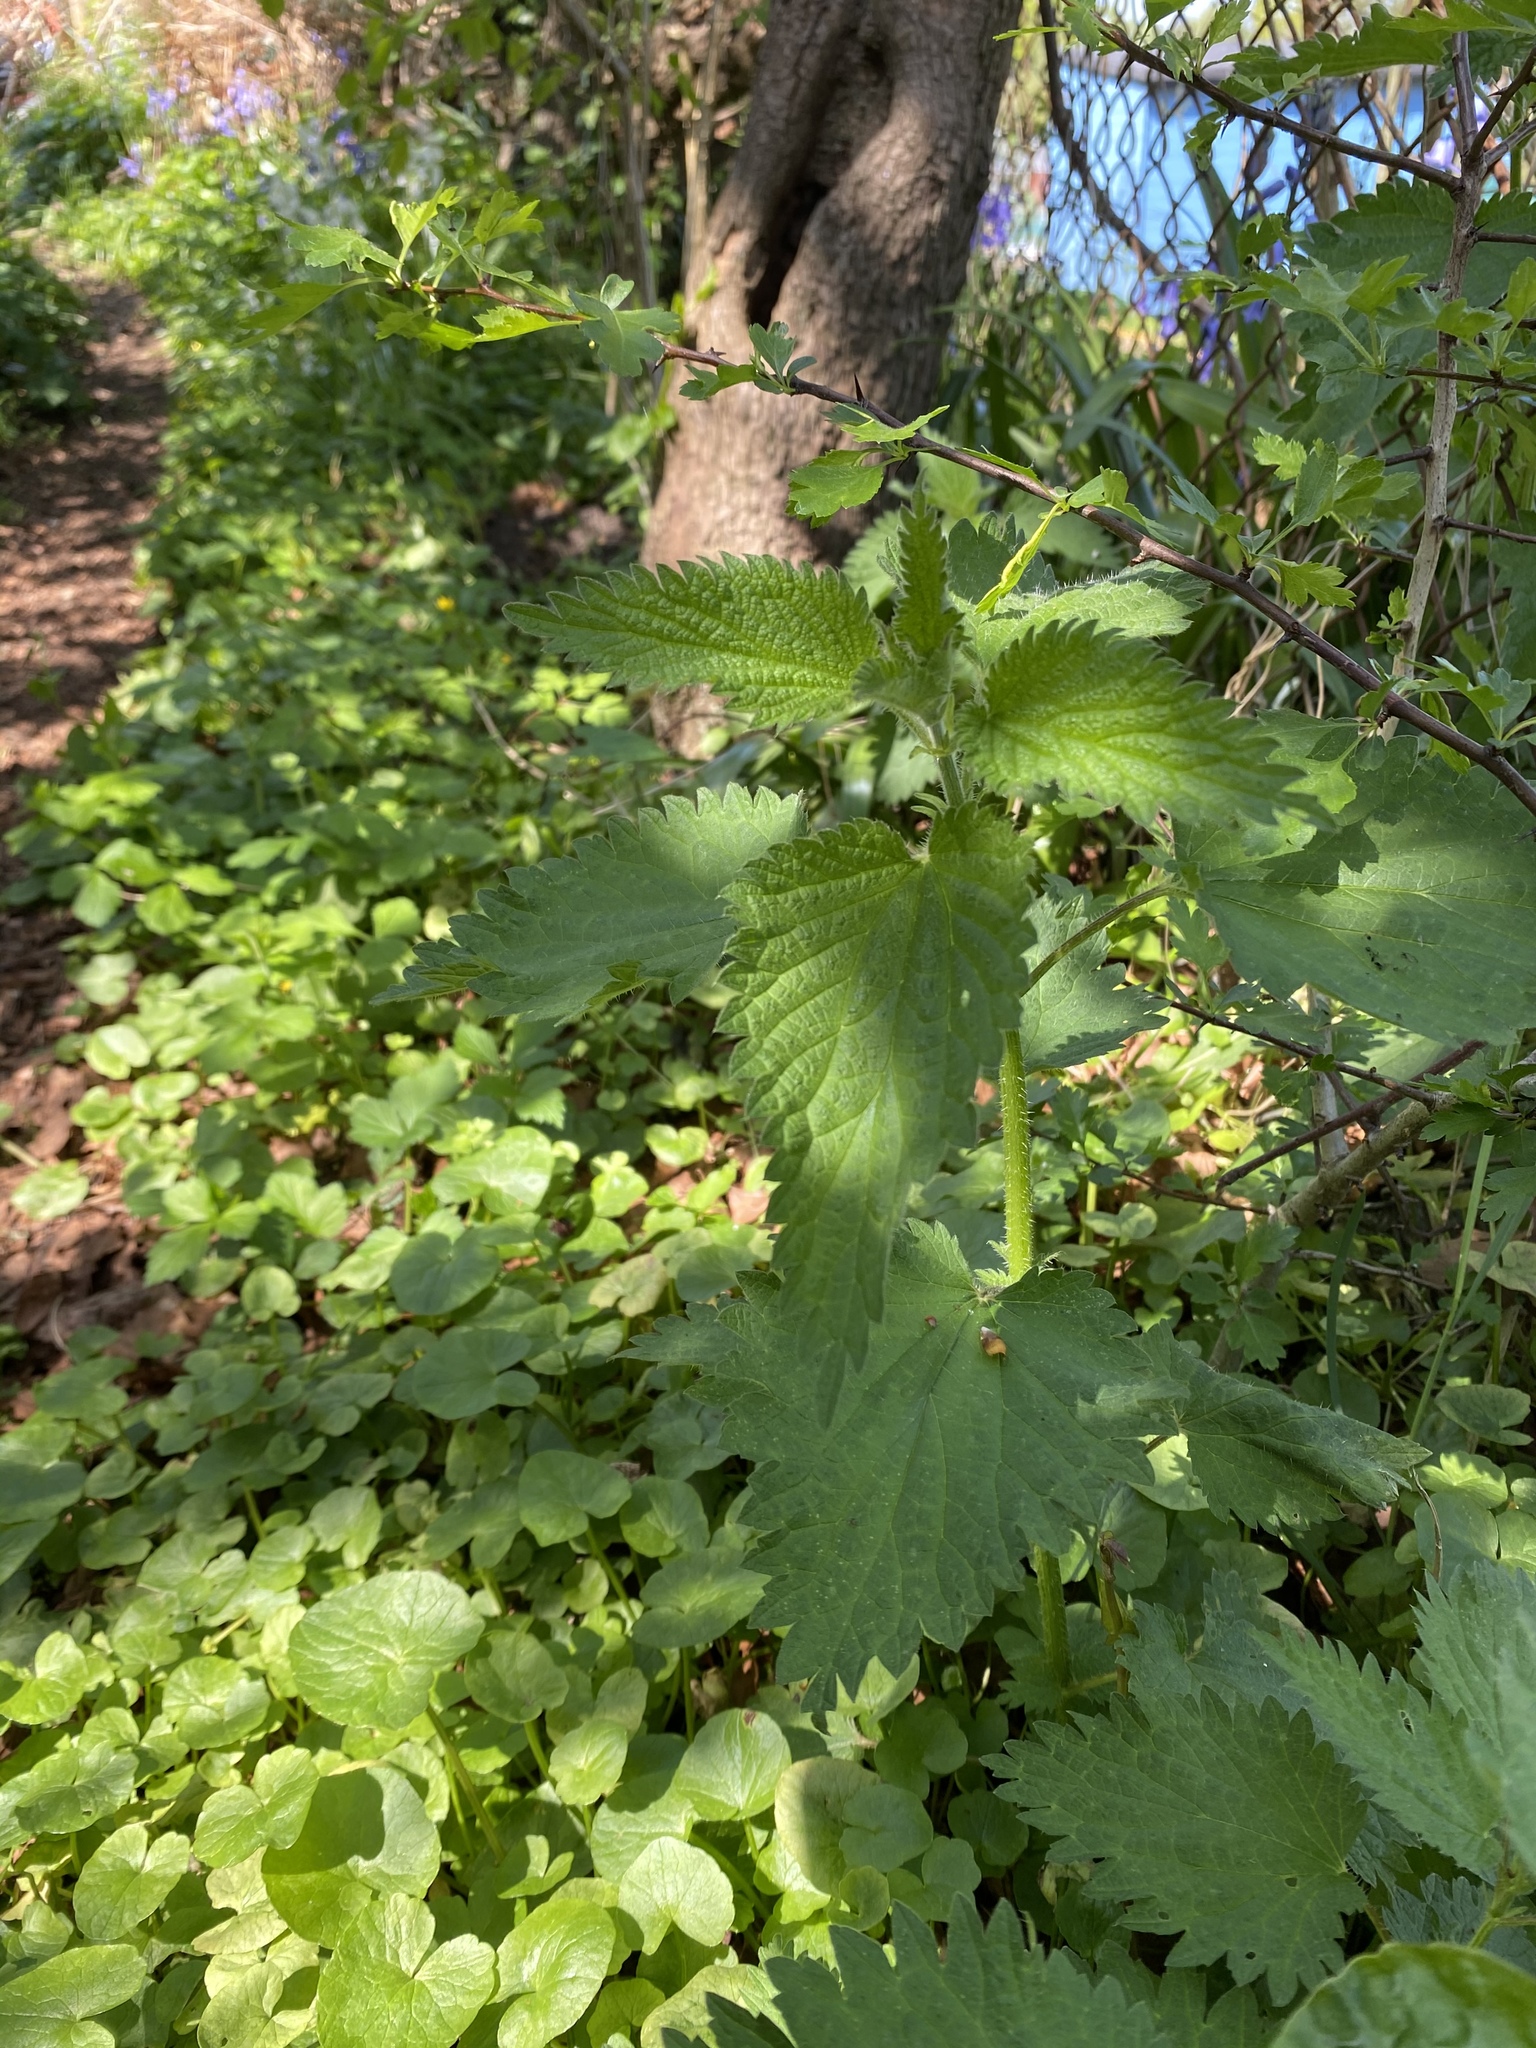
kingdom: Plantae
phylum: Tracheophyta
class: Magnoliopsida
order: Rosales
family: Urticaceae
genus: Urtica
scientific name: Urtica dioica
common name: Common nettle
